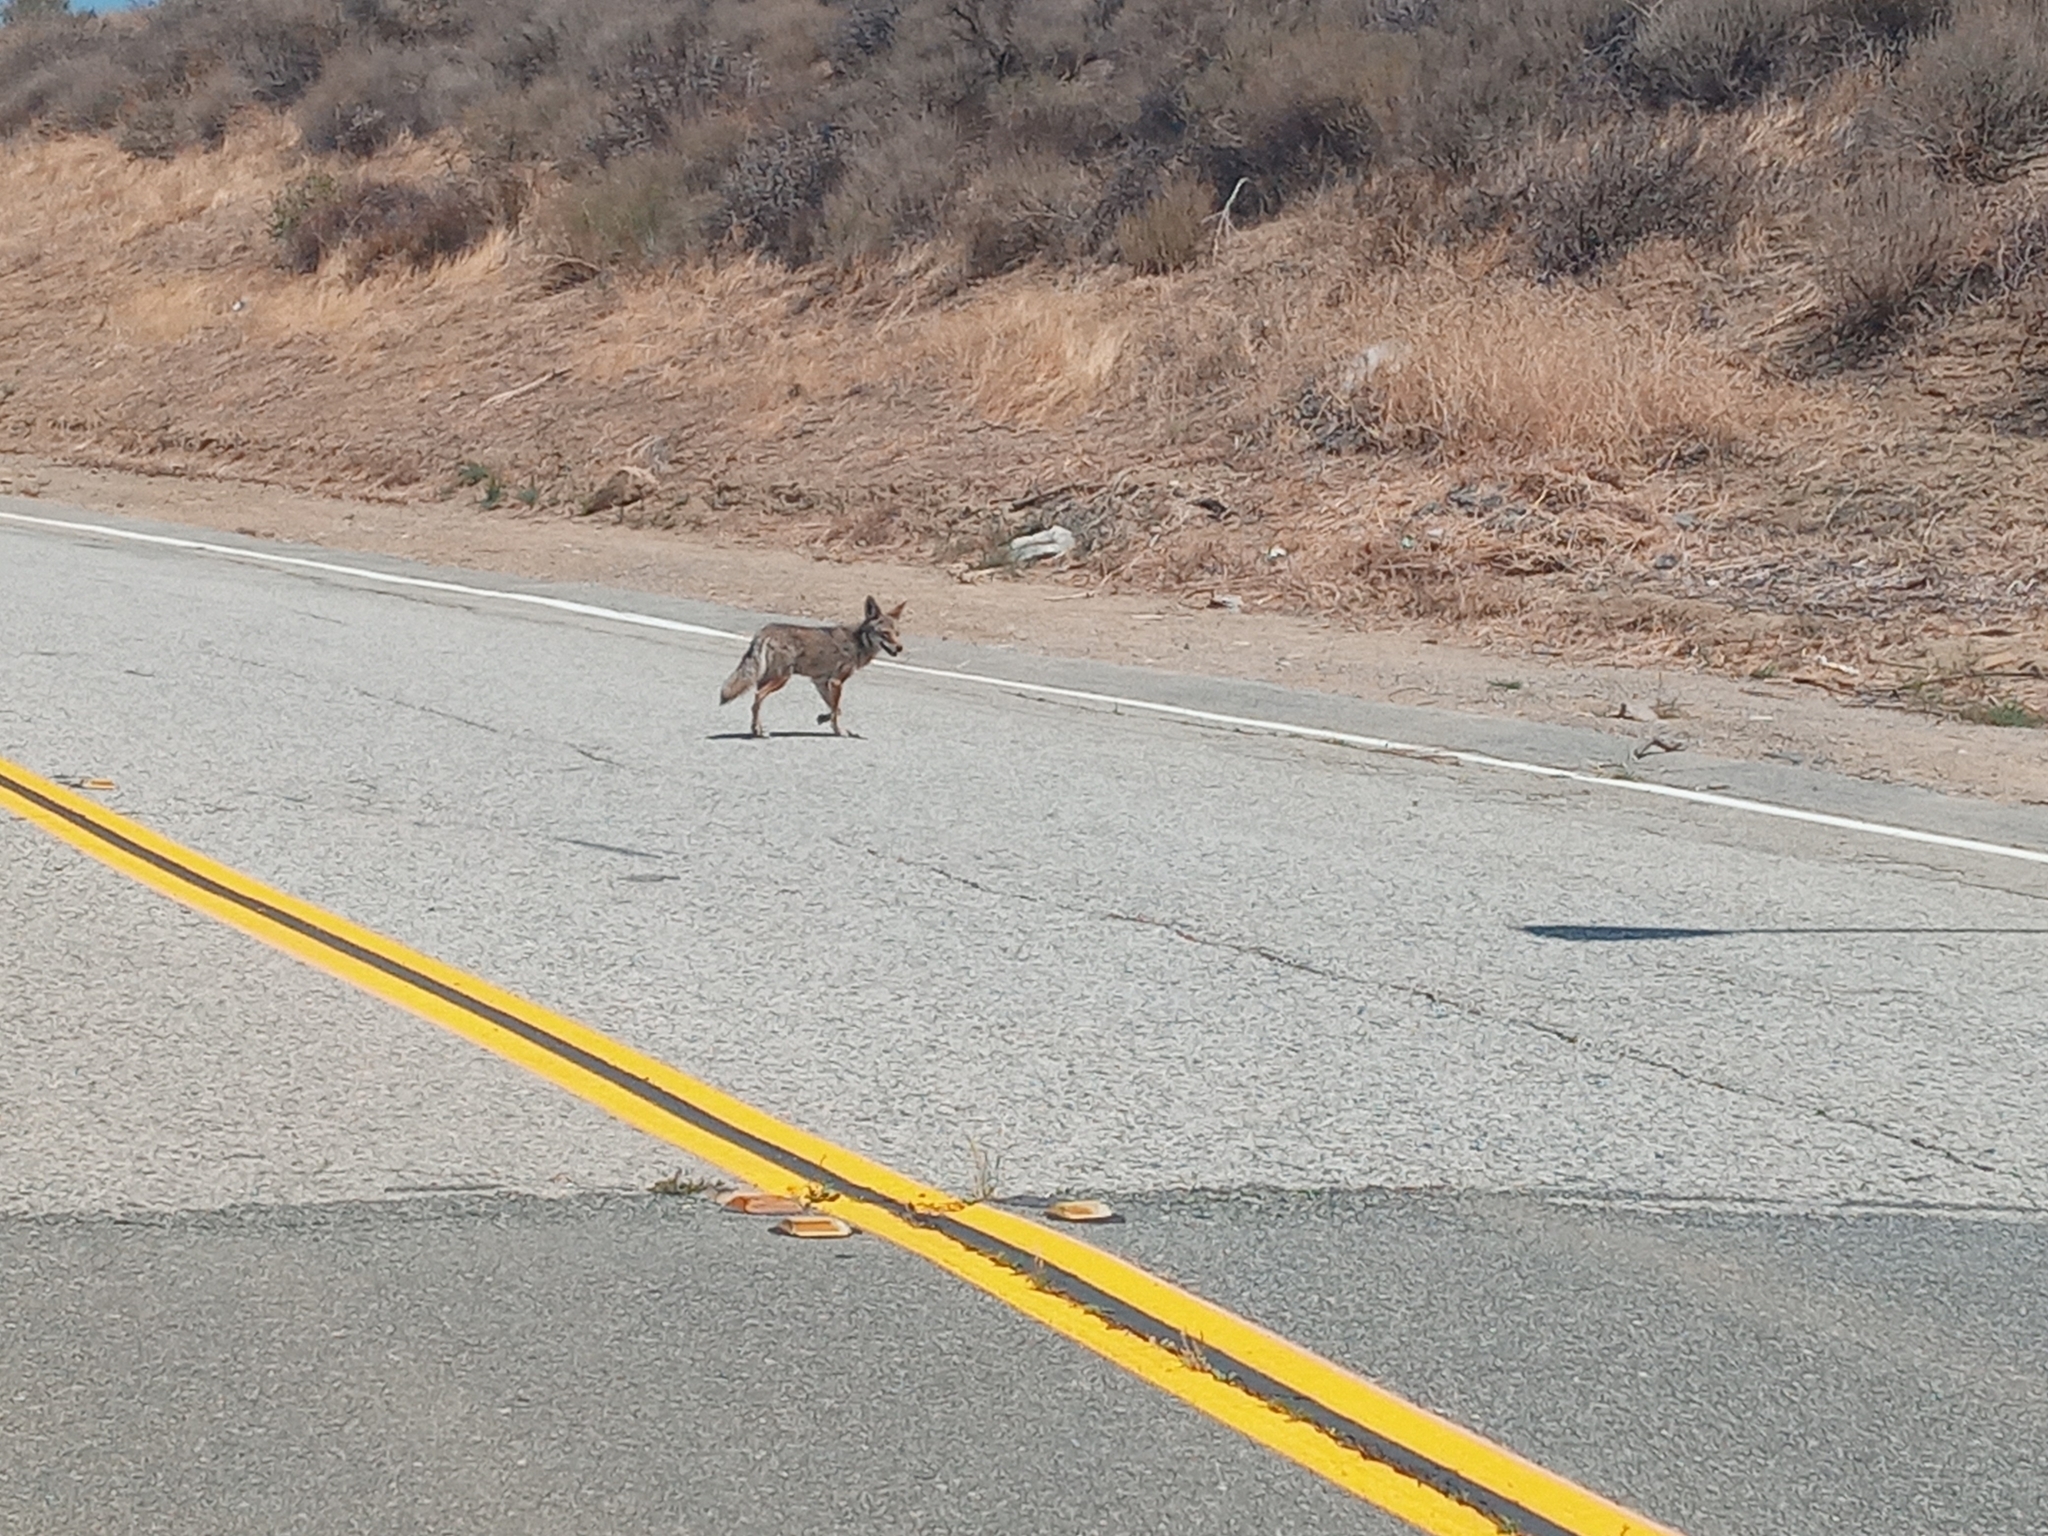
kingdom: Animalia
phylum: Chordata
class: Mammalia
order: Carnivora
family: Canidae
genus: Canis
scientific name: Canis latrans
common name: Coyote
